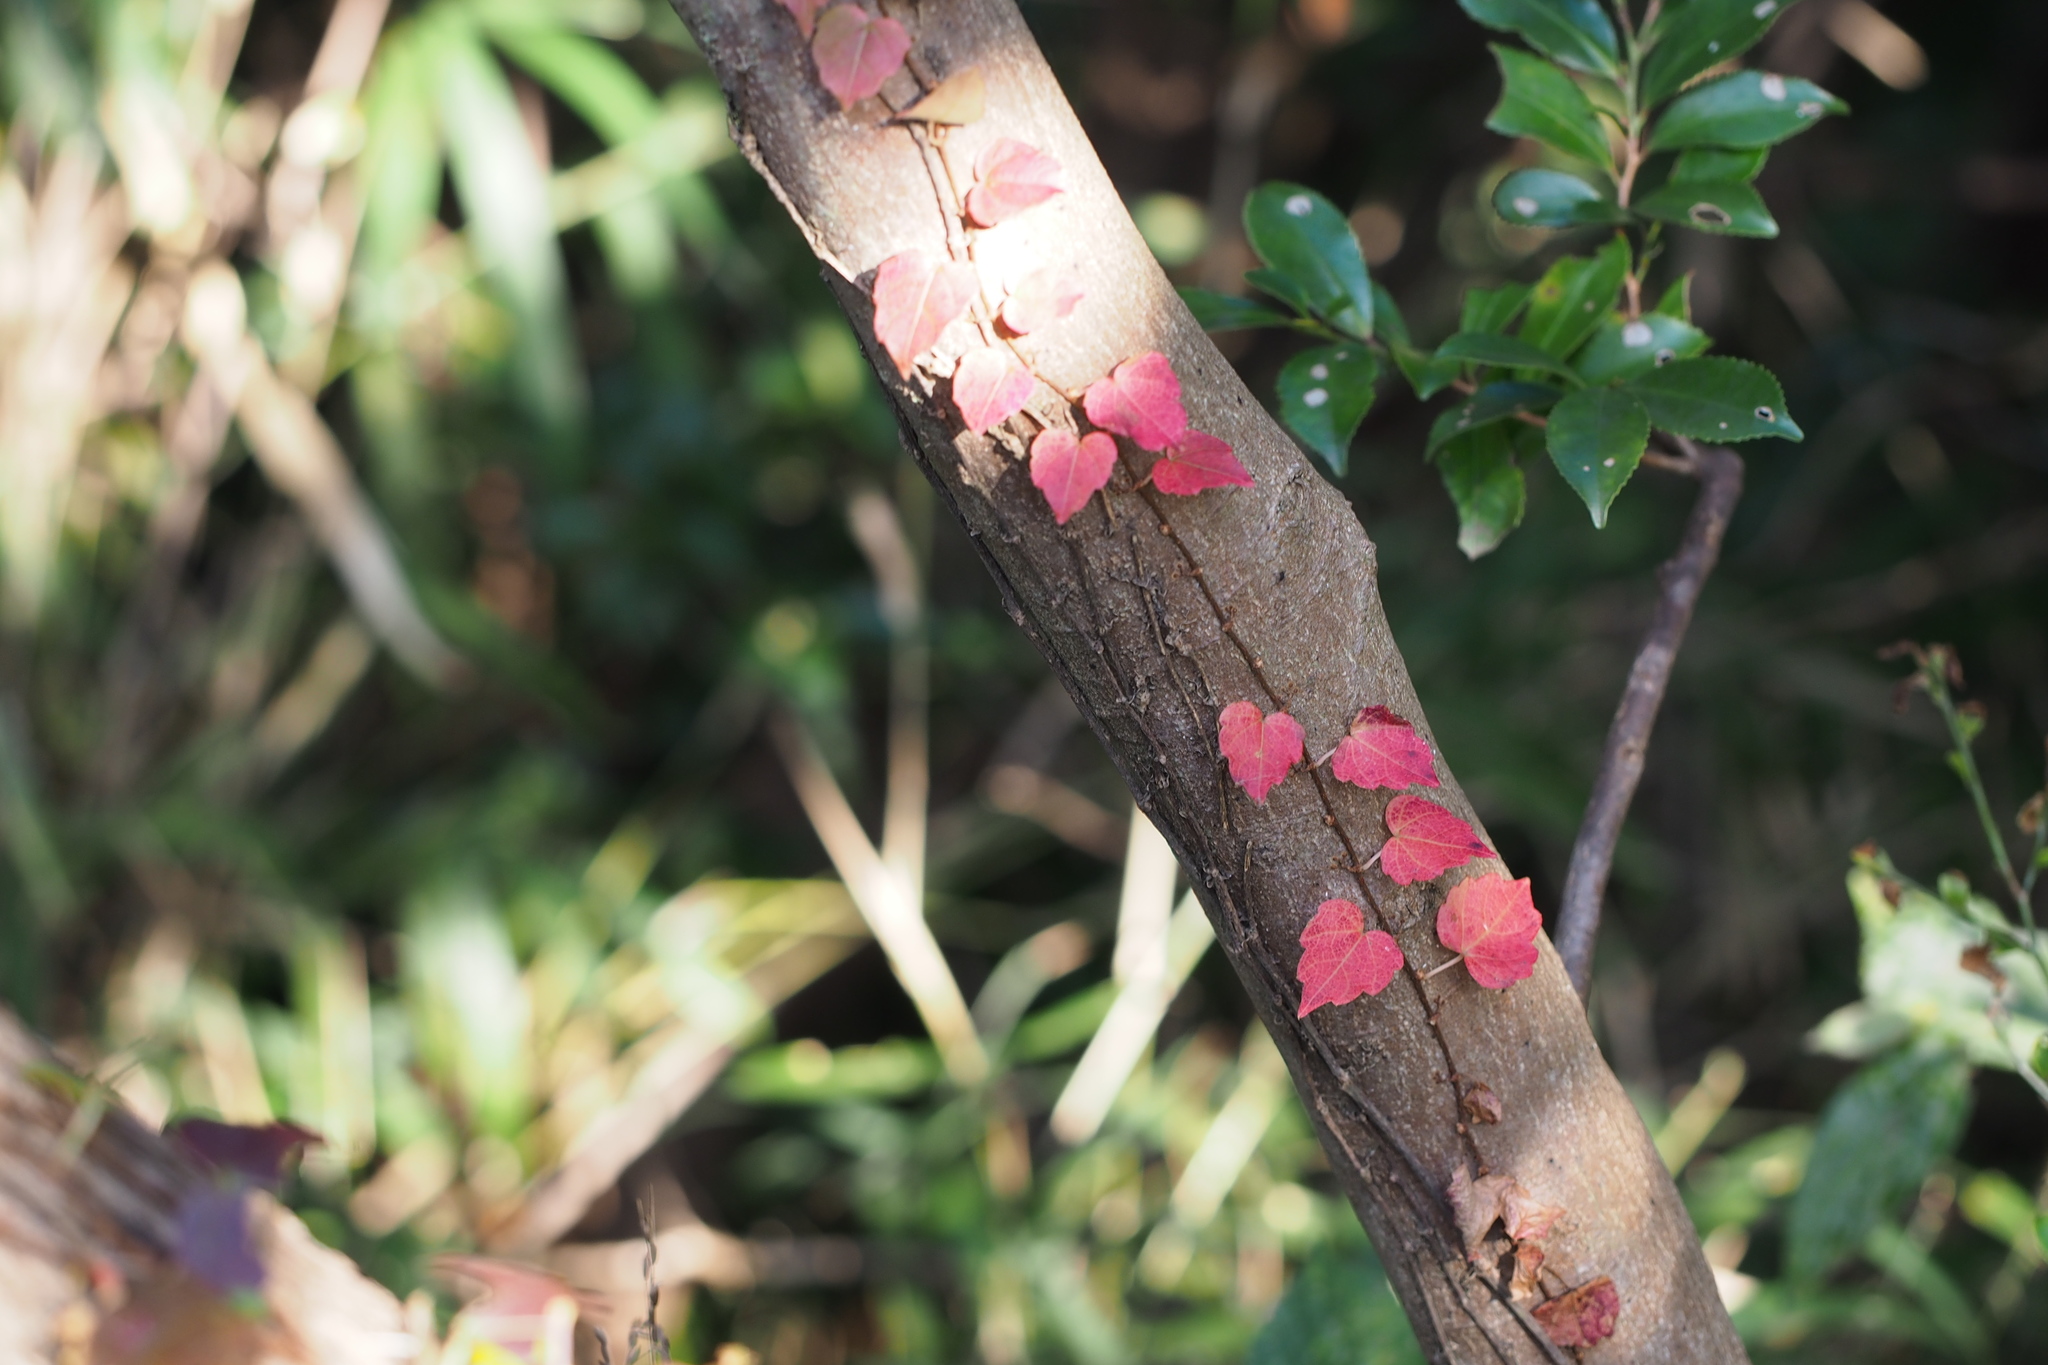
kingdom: Plantae
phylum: Tracheophyta
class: Magnoliopsida
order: Vitales
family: Vitaceae
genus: Parthenocissus
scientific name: Parthenocissus tricuspidata
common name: Boston ivy
